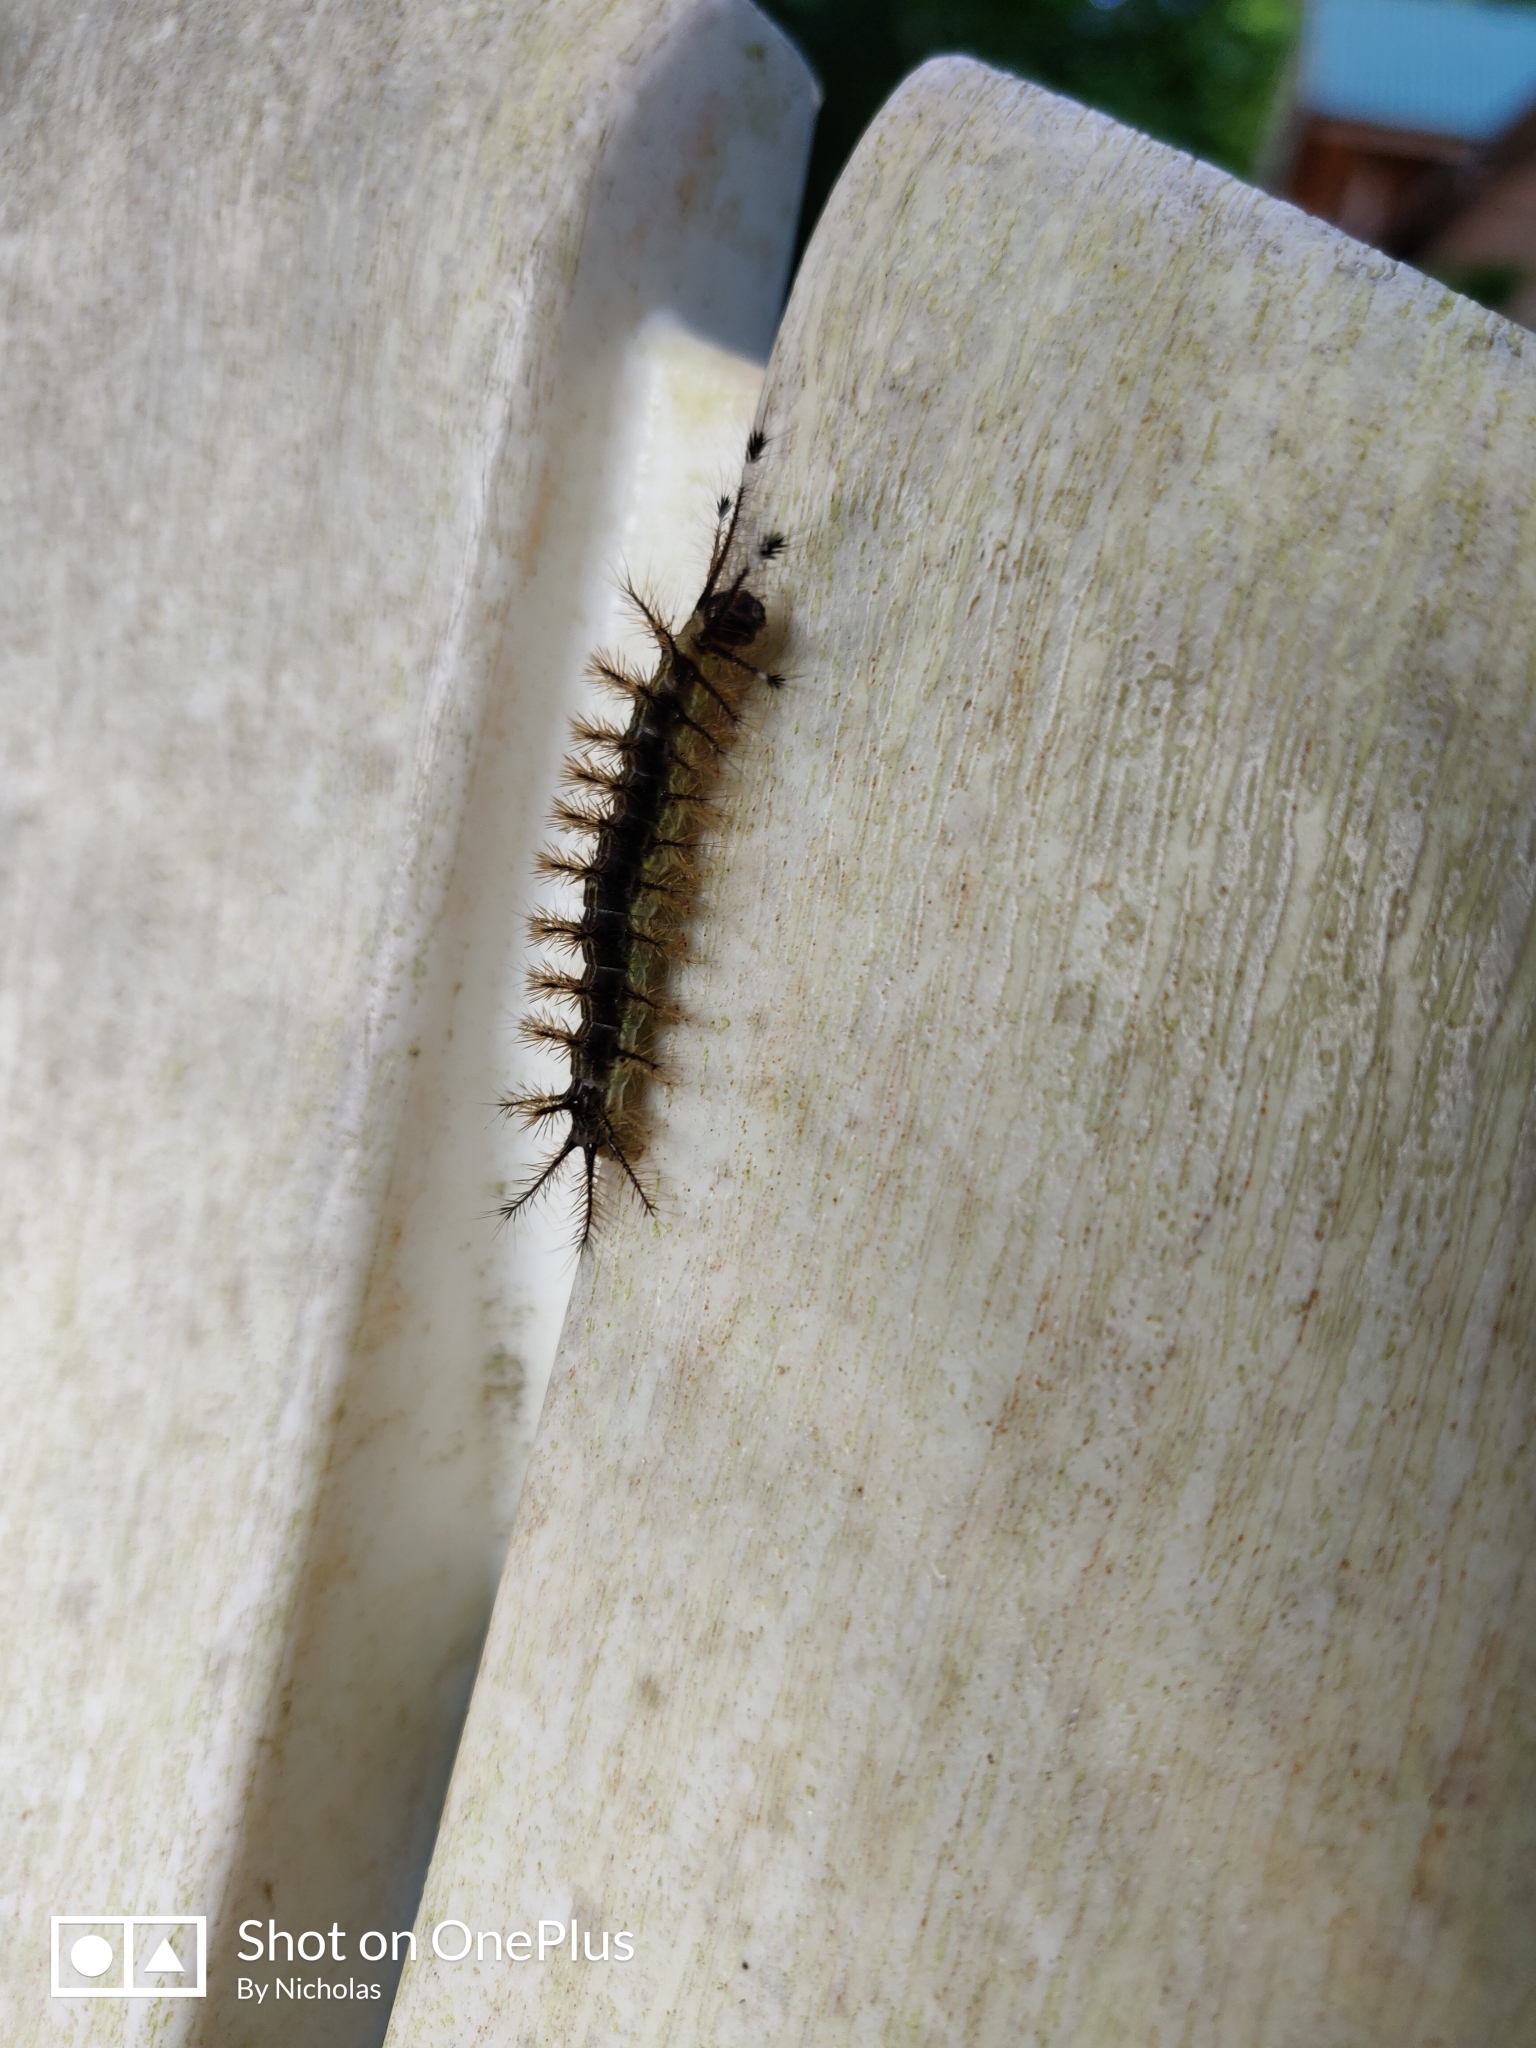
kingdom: Animalia
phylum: Arthropoda
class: Insecta
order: Lepidoptera
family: Saturniidae
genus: Hylesia
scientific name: Hylesia metabus
